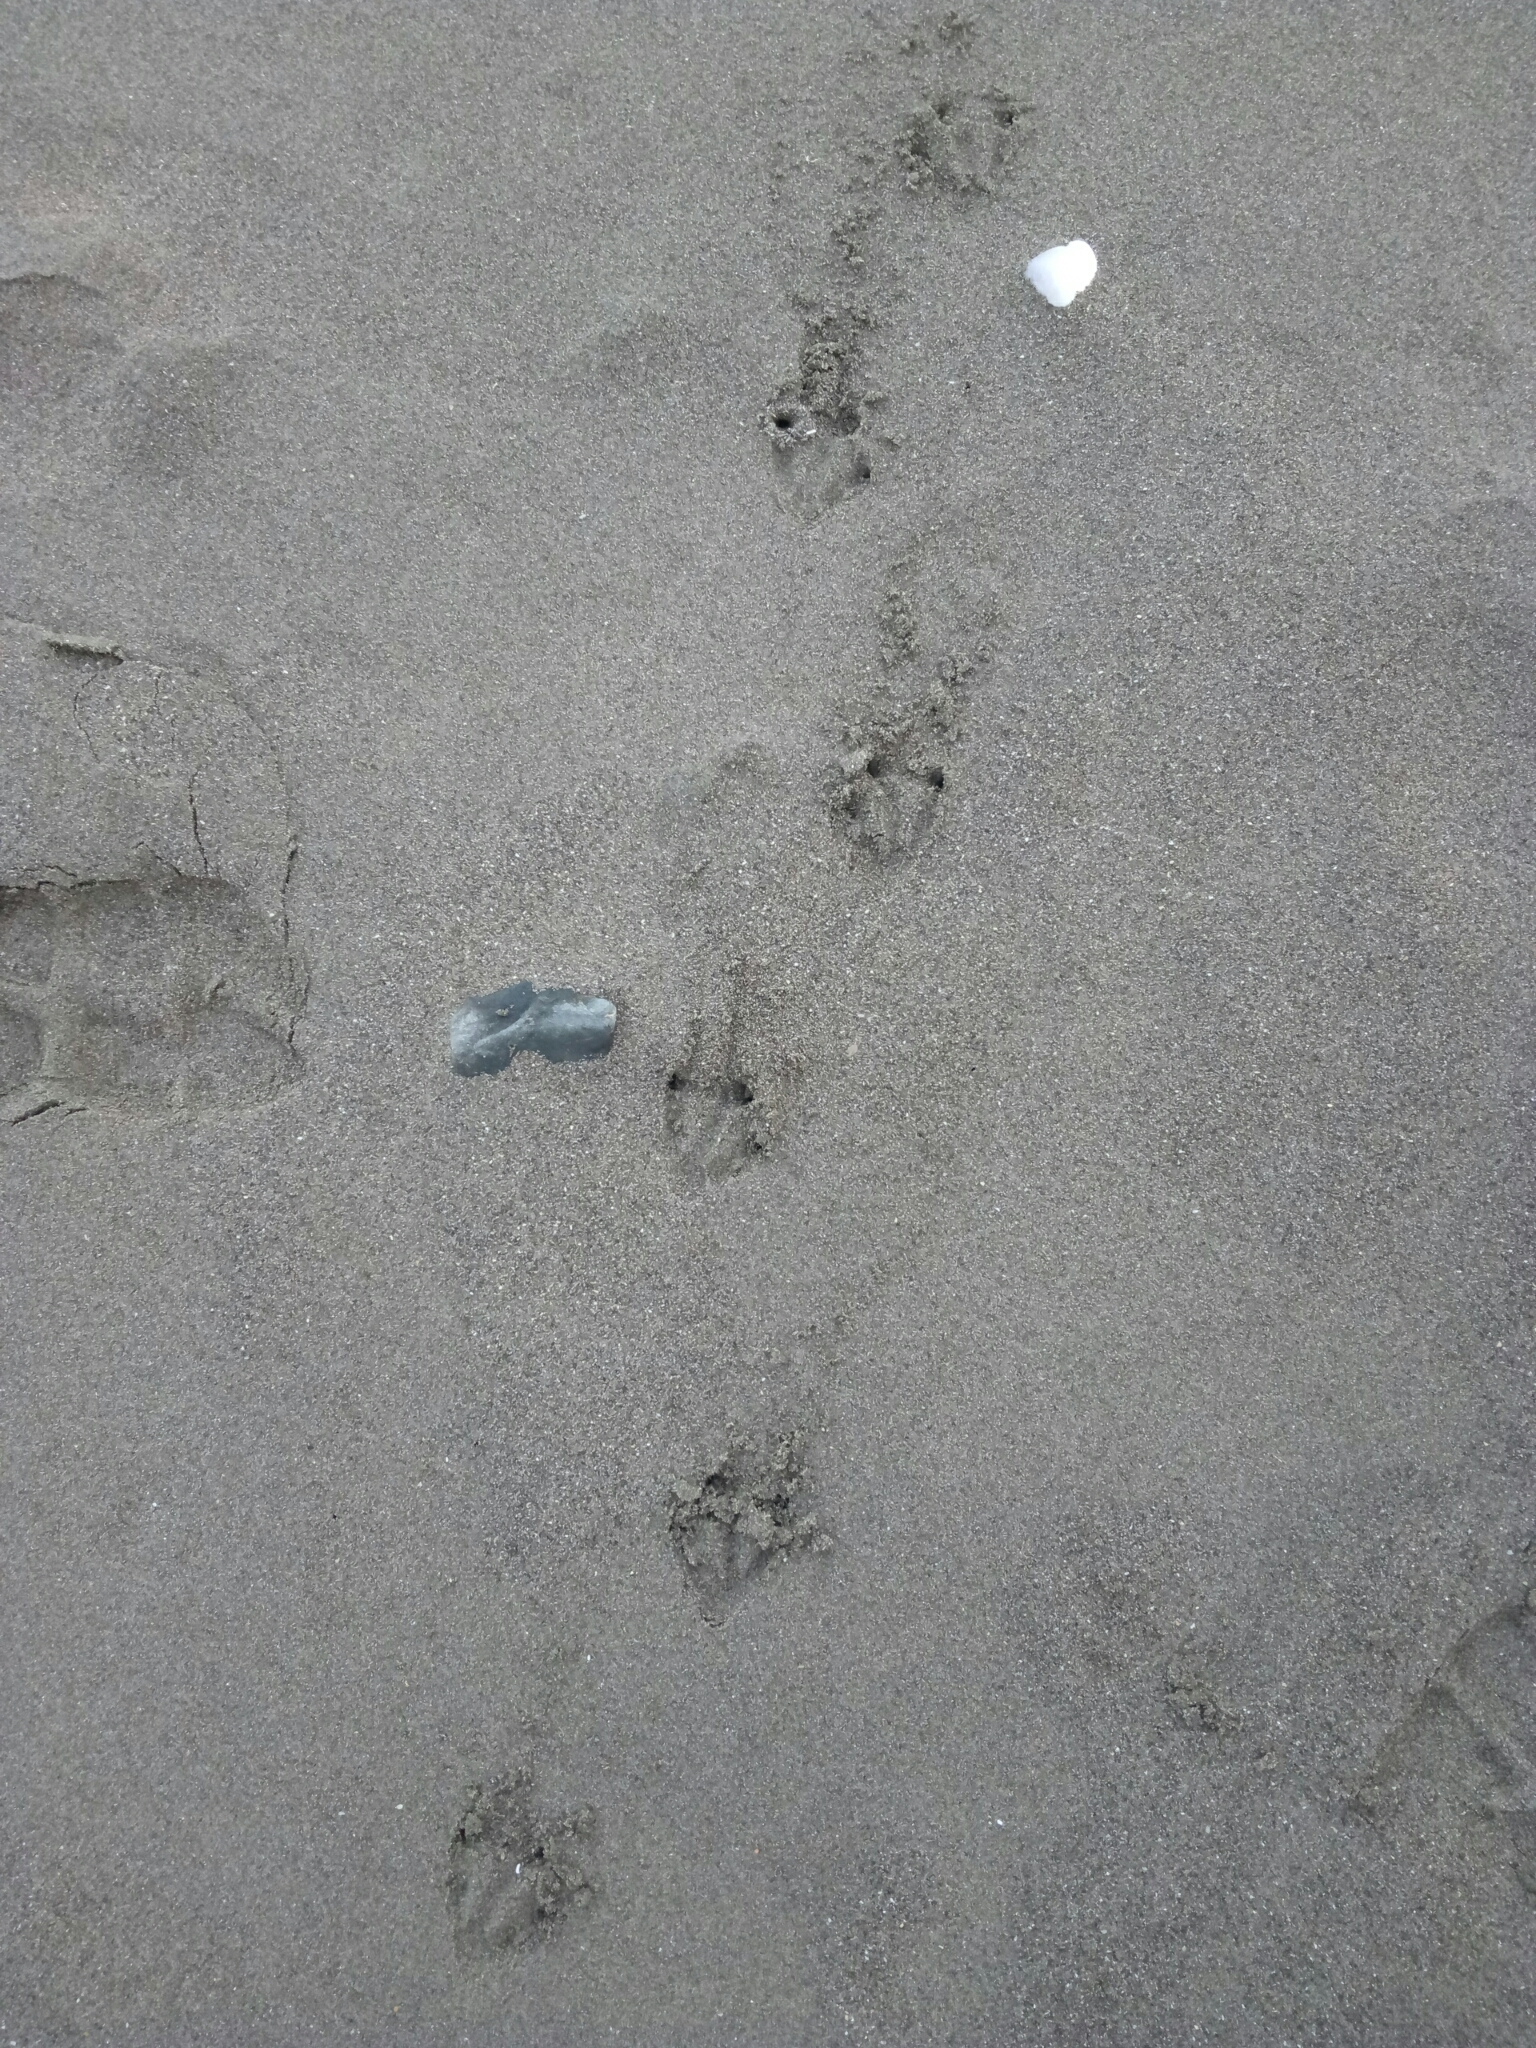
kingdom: Animalia
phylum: Chordata
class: Aves
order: Sphenisciformes
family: Spheniscidae
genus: Eudyptula
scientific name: Eudyptula minor
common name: Little penguin
